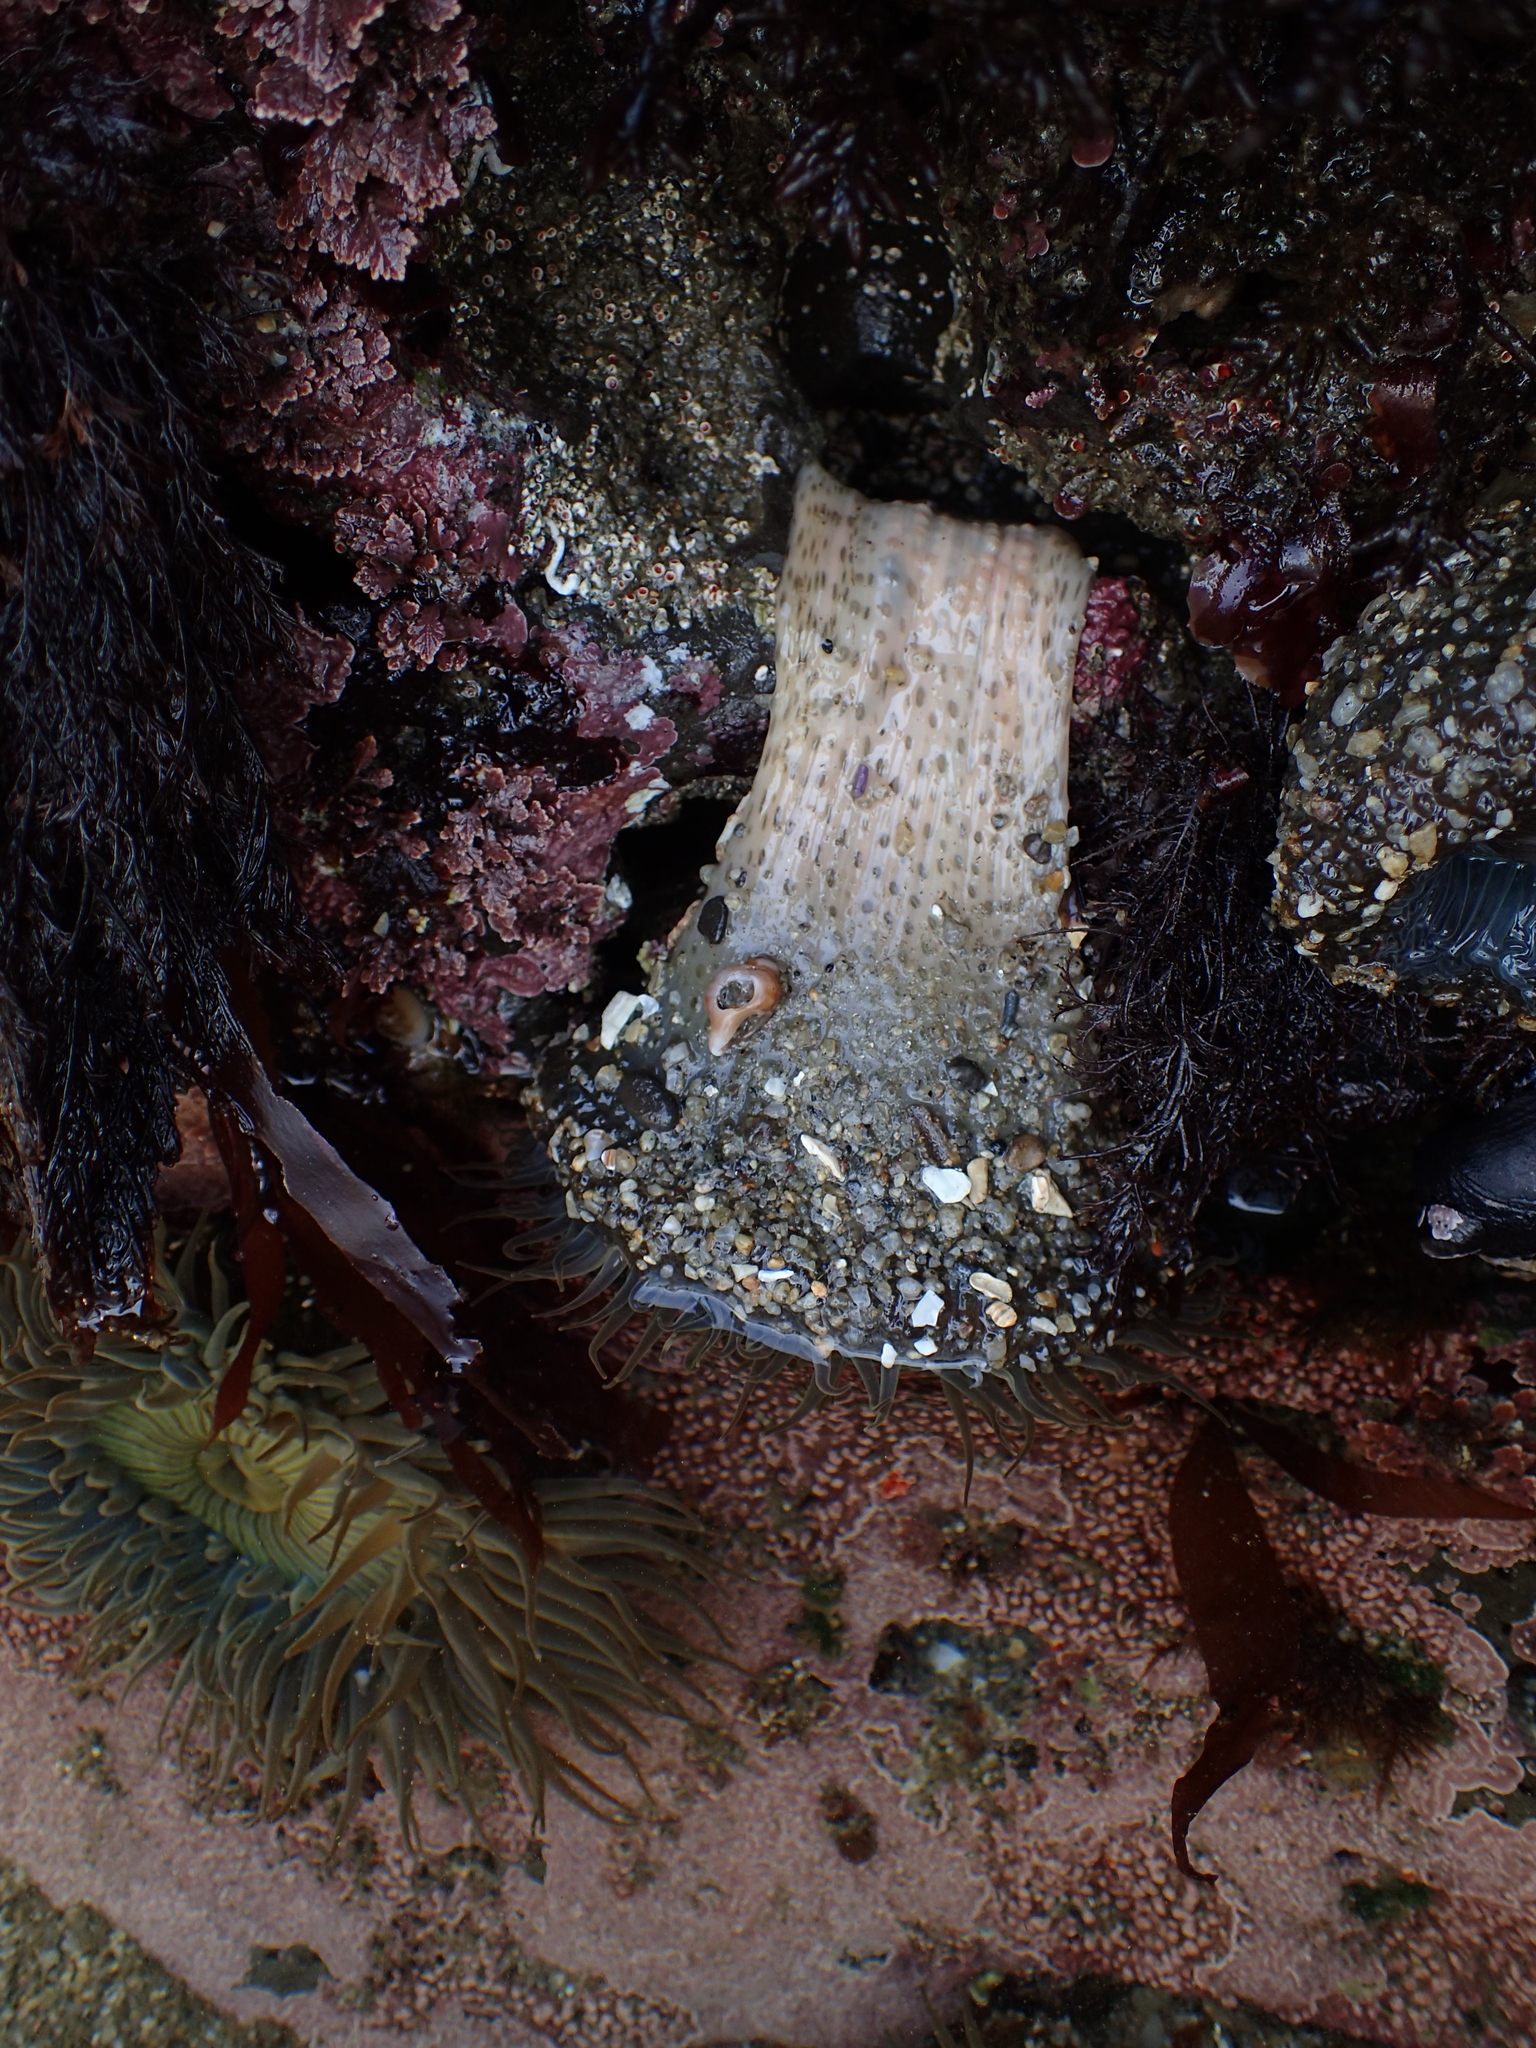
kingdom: Animalia
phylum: Cnidaria
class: Anthozoa
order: Actiniaria
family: Actiniidae
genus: Anthopleura
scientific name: Anthopleura sola
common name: Sun anemone
